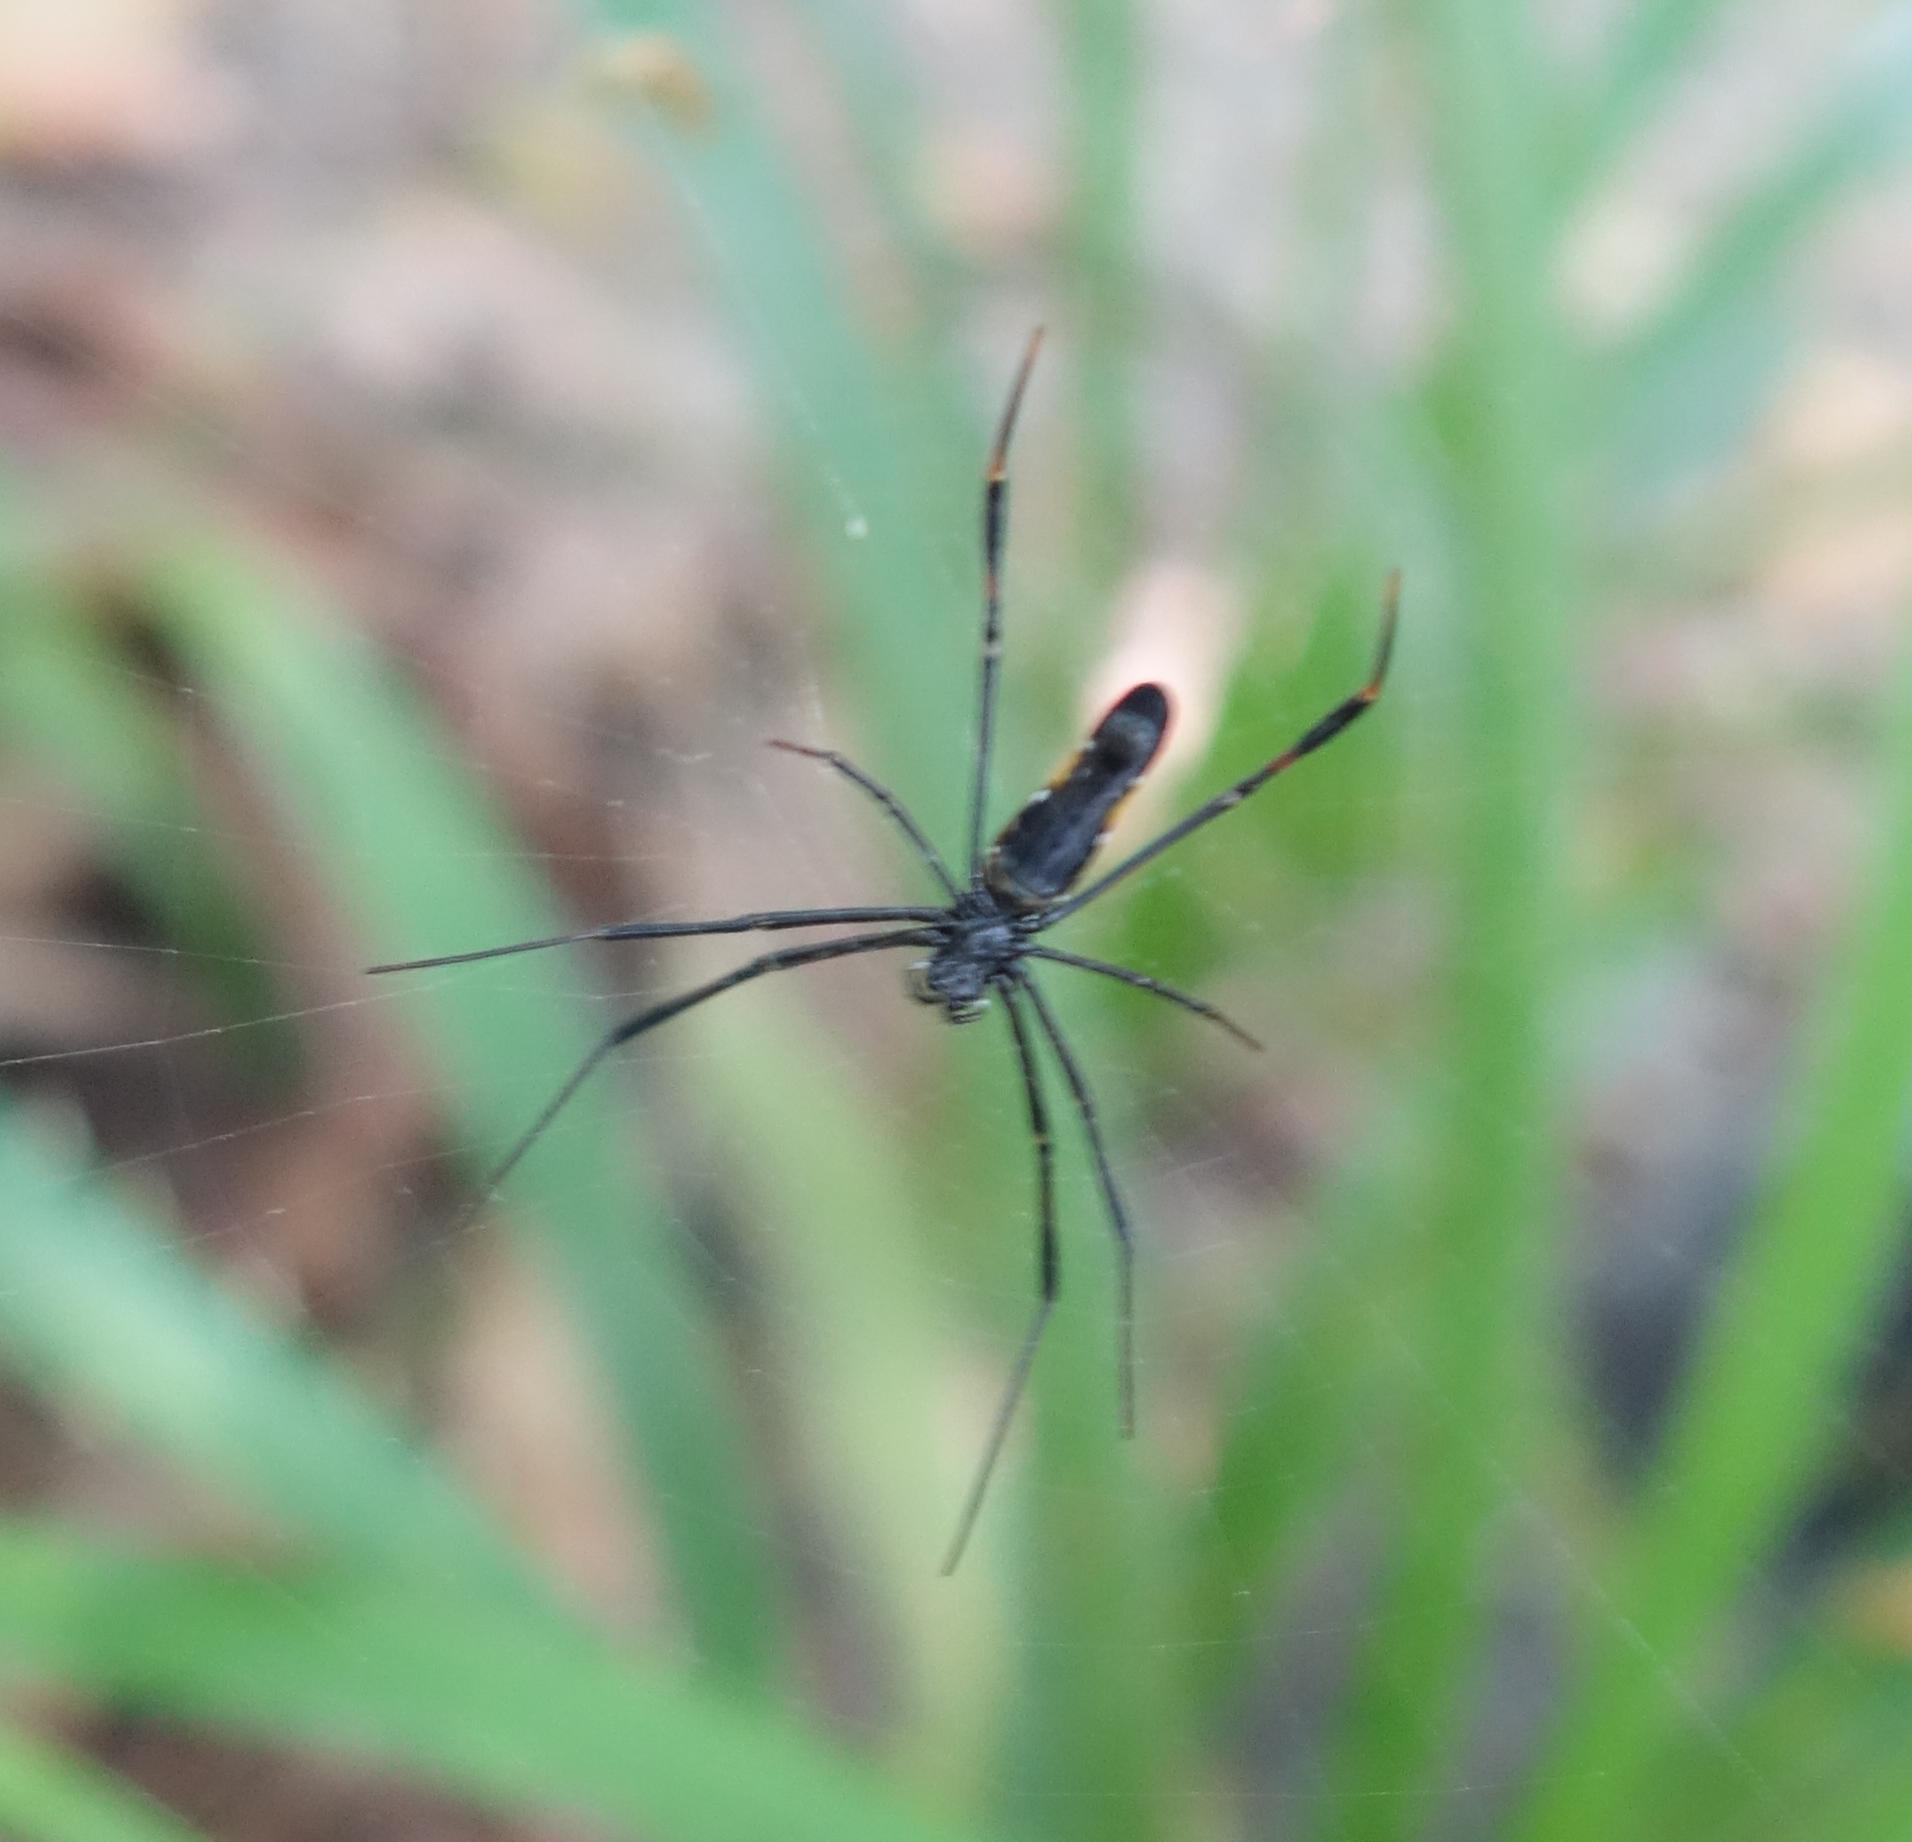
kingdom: Animalia
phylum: Arthropoda
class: Arachnida
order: Araneae
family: Araneidae
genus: Nephila
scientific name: Nephila pilipes
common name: Giant golden orb weaver
